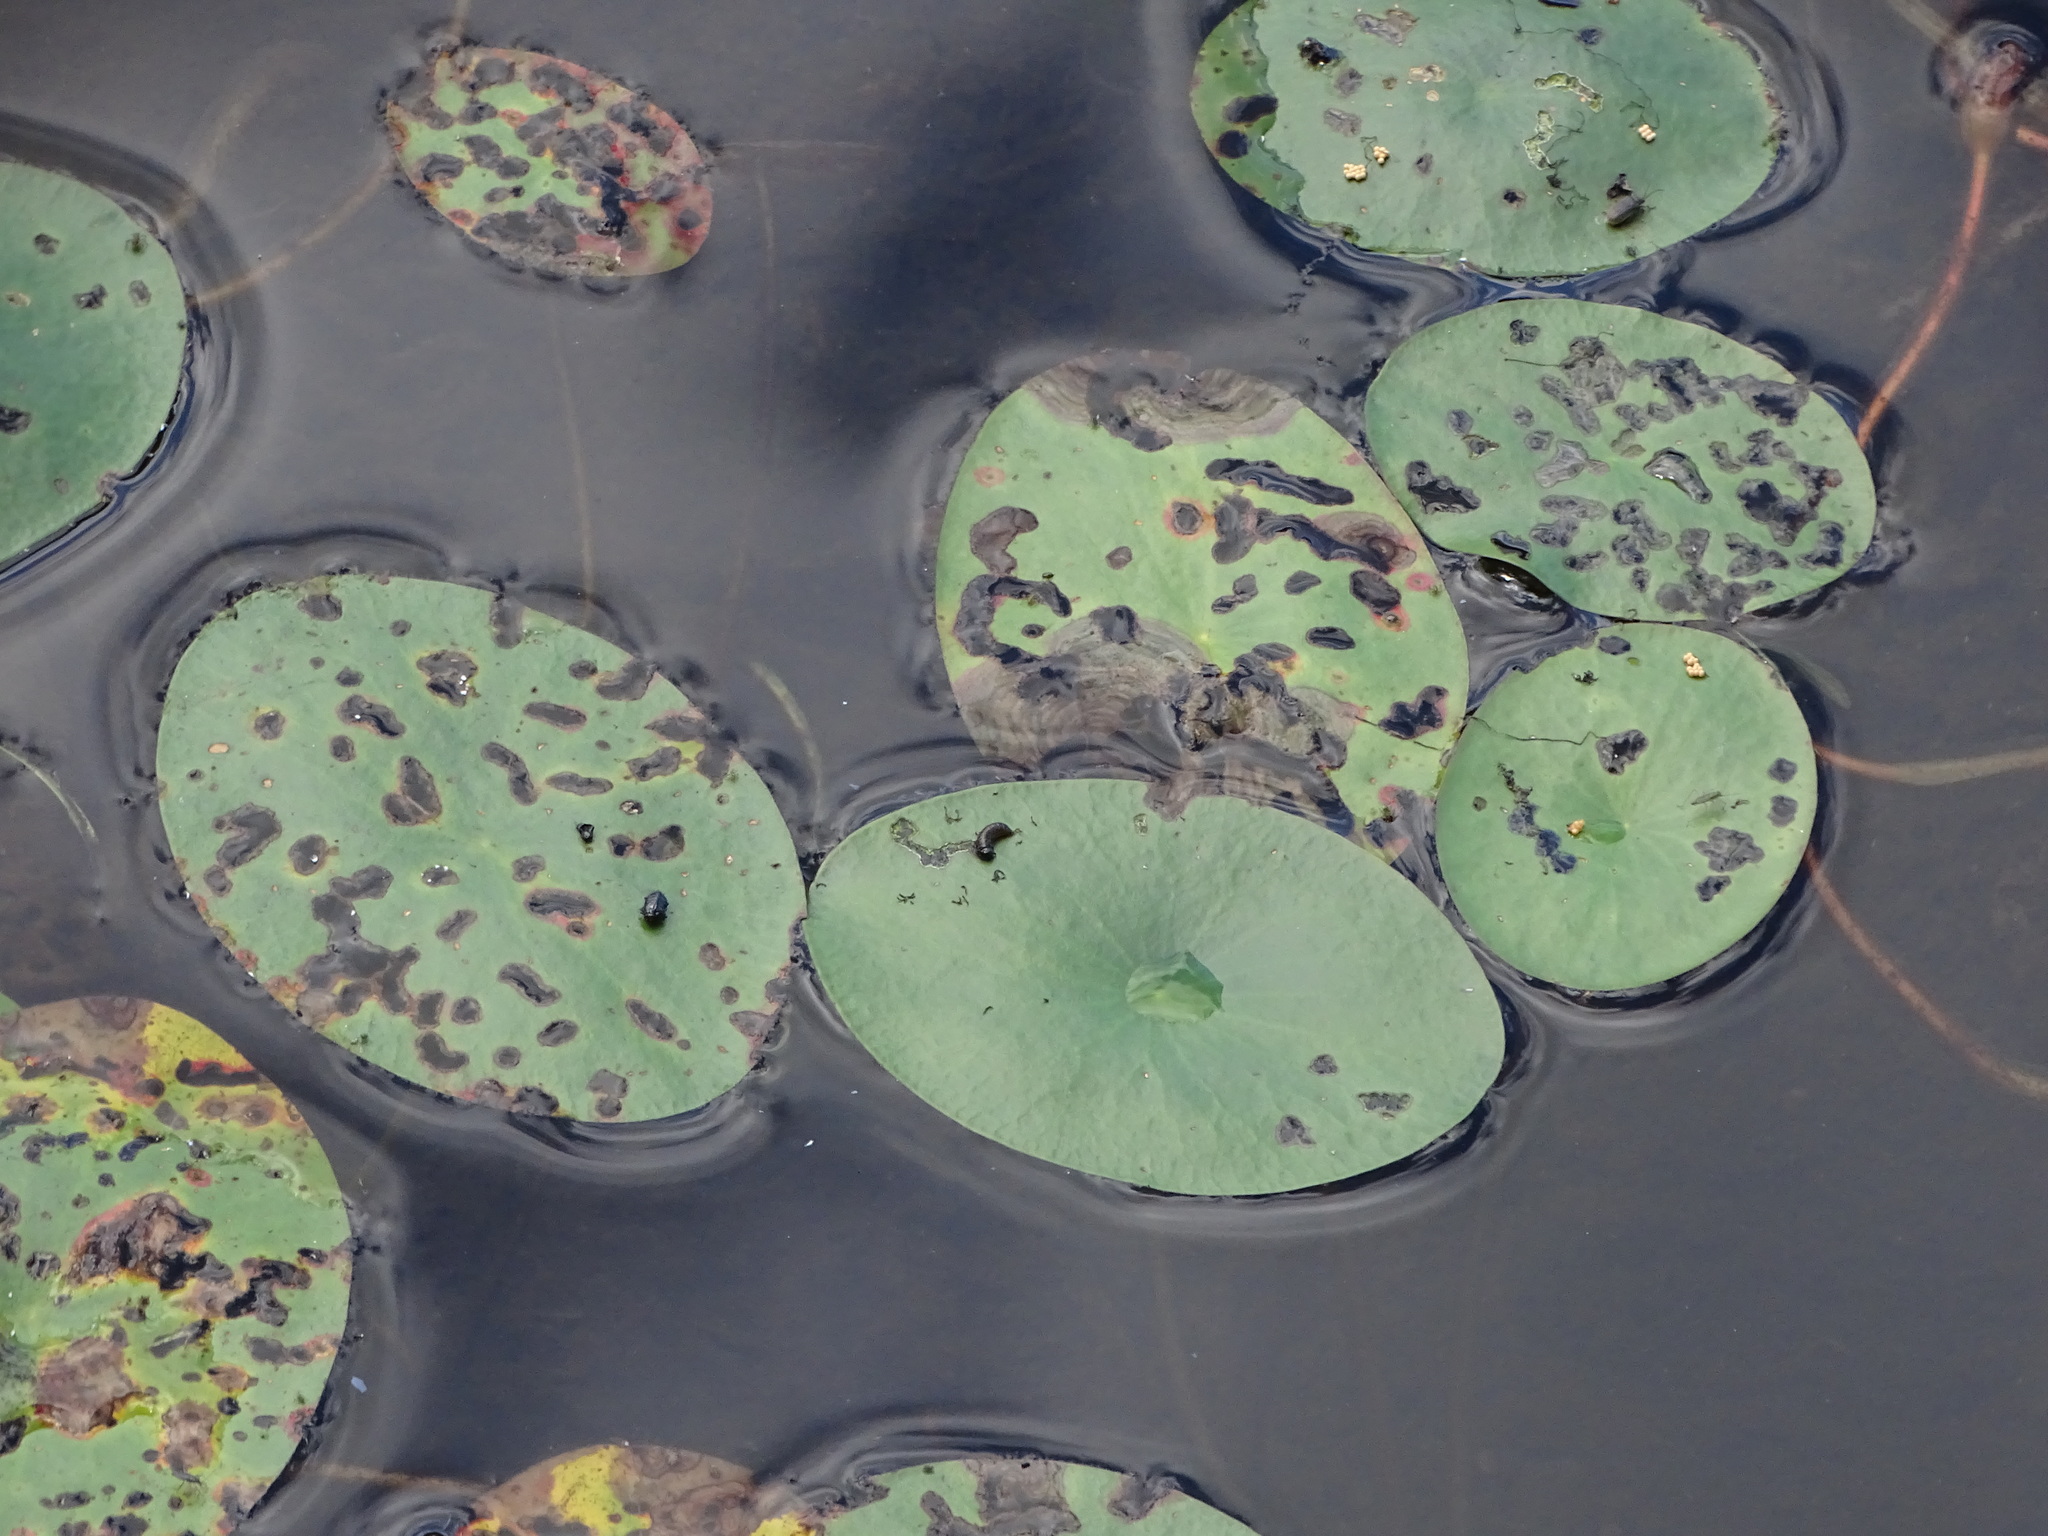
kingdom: Plantae
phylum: Tracheophyta
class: Magnoliopsida
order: Nymphaeales
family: Cabombaceae
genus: Brasenia
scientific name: Brasenia schreberi
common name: Water-shield
